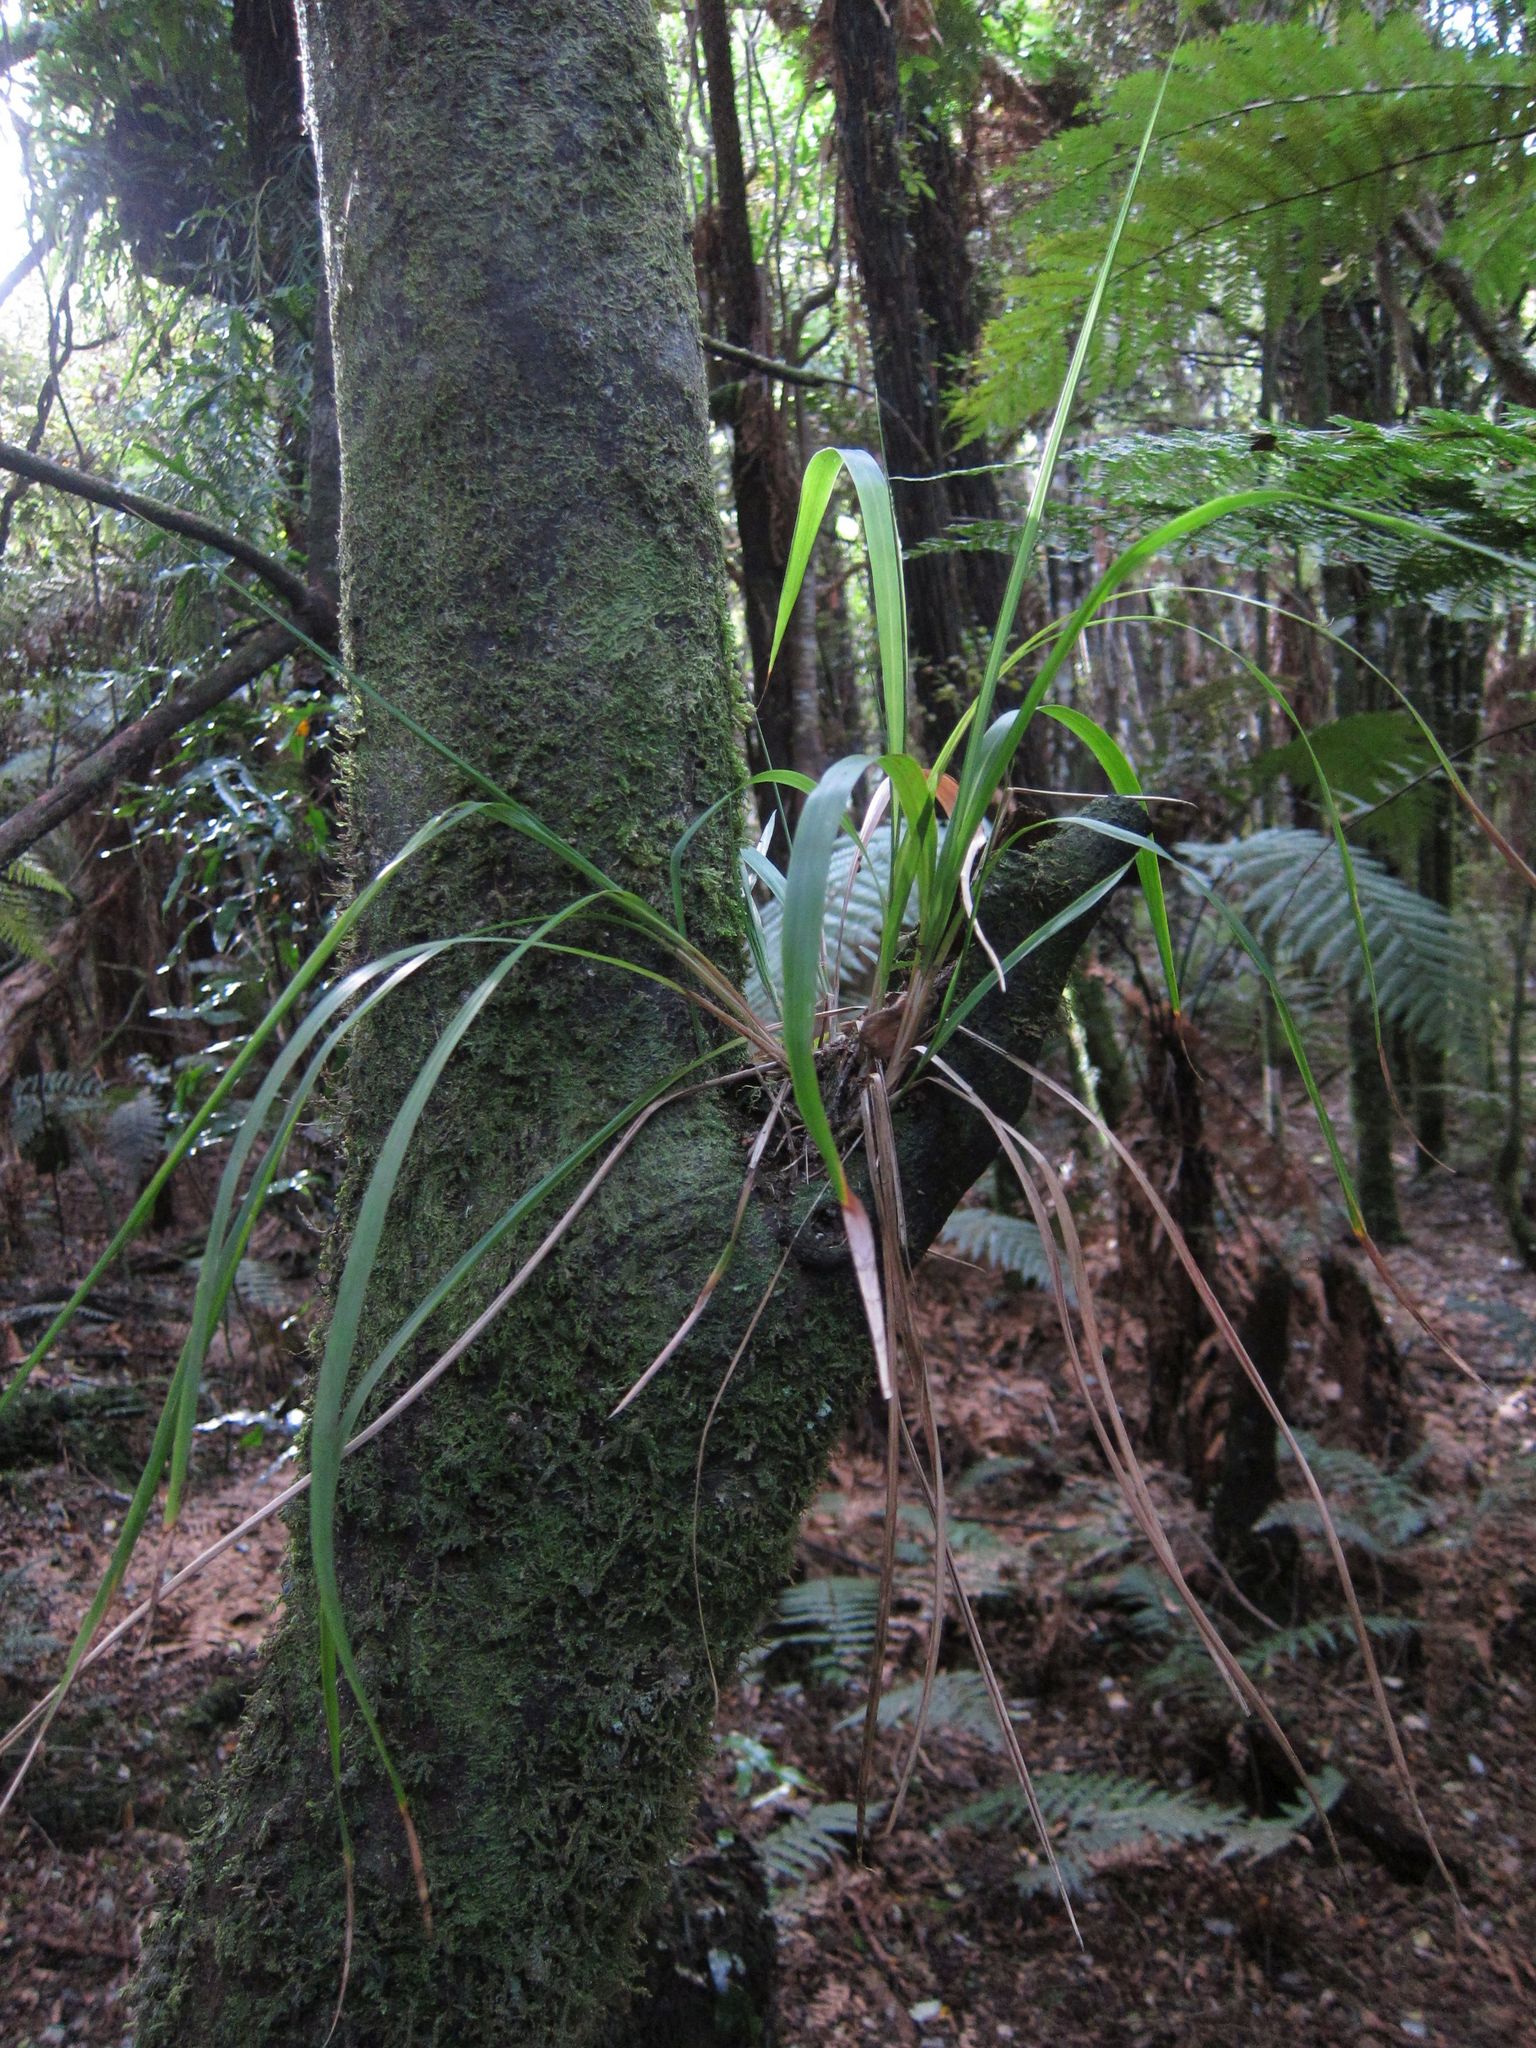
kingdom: Plantae
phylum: Tracheophyta
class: Liliopsida
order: Poales
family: Poaceae
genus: Ehrharta
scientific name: Ehrharta diplax
